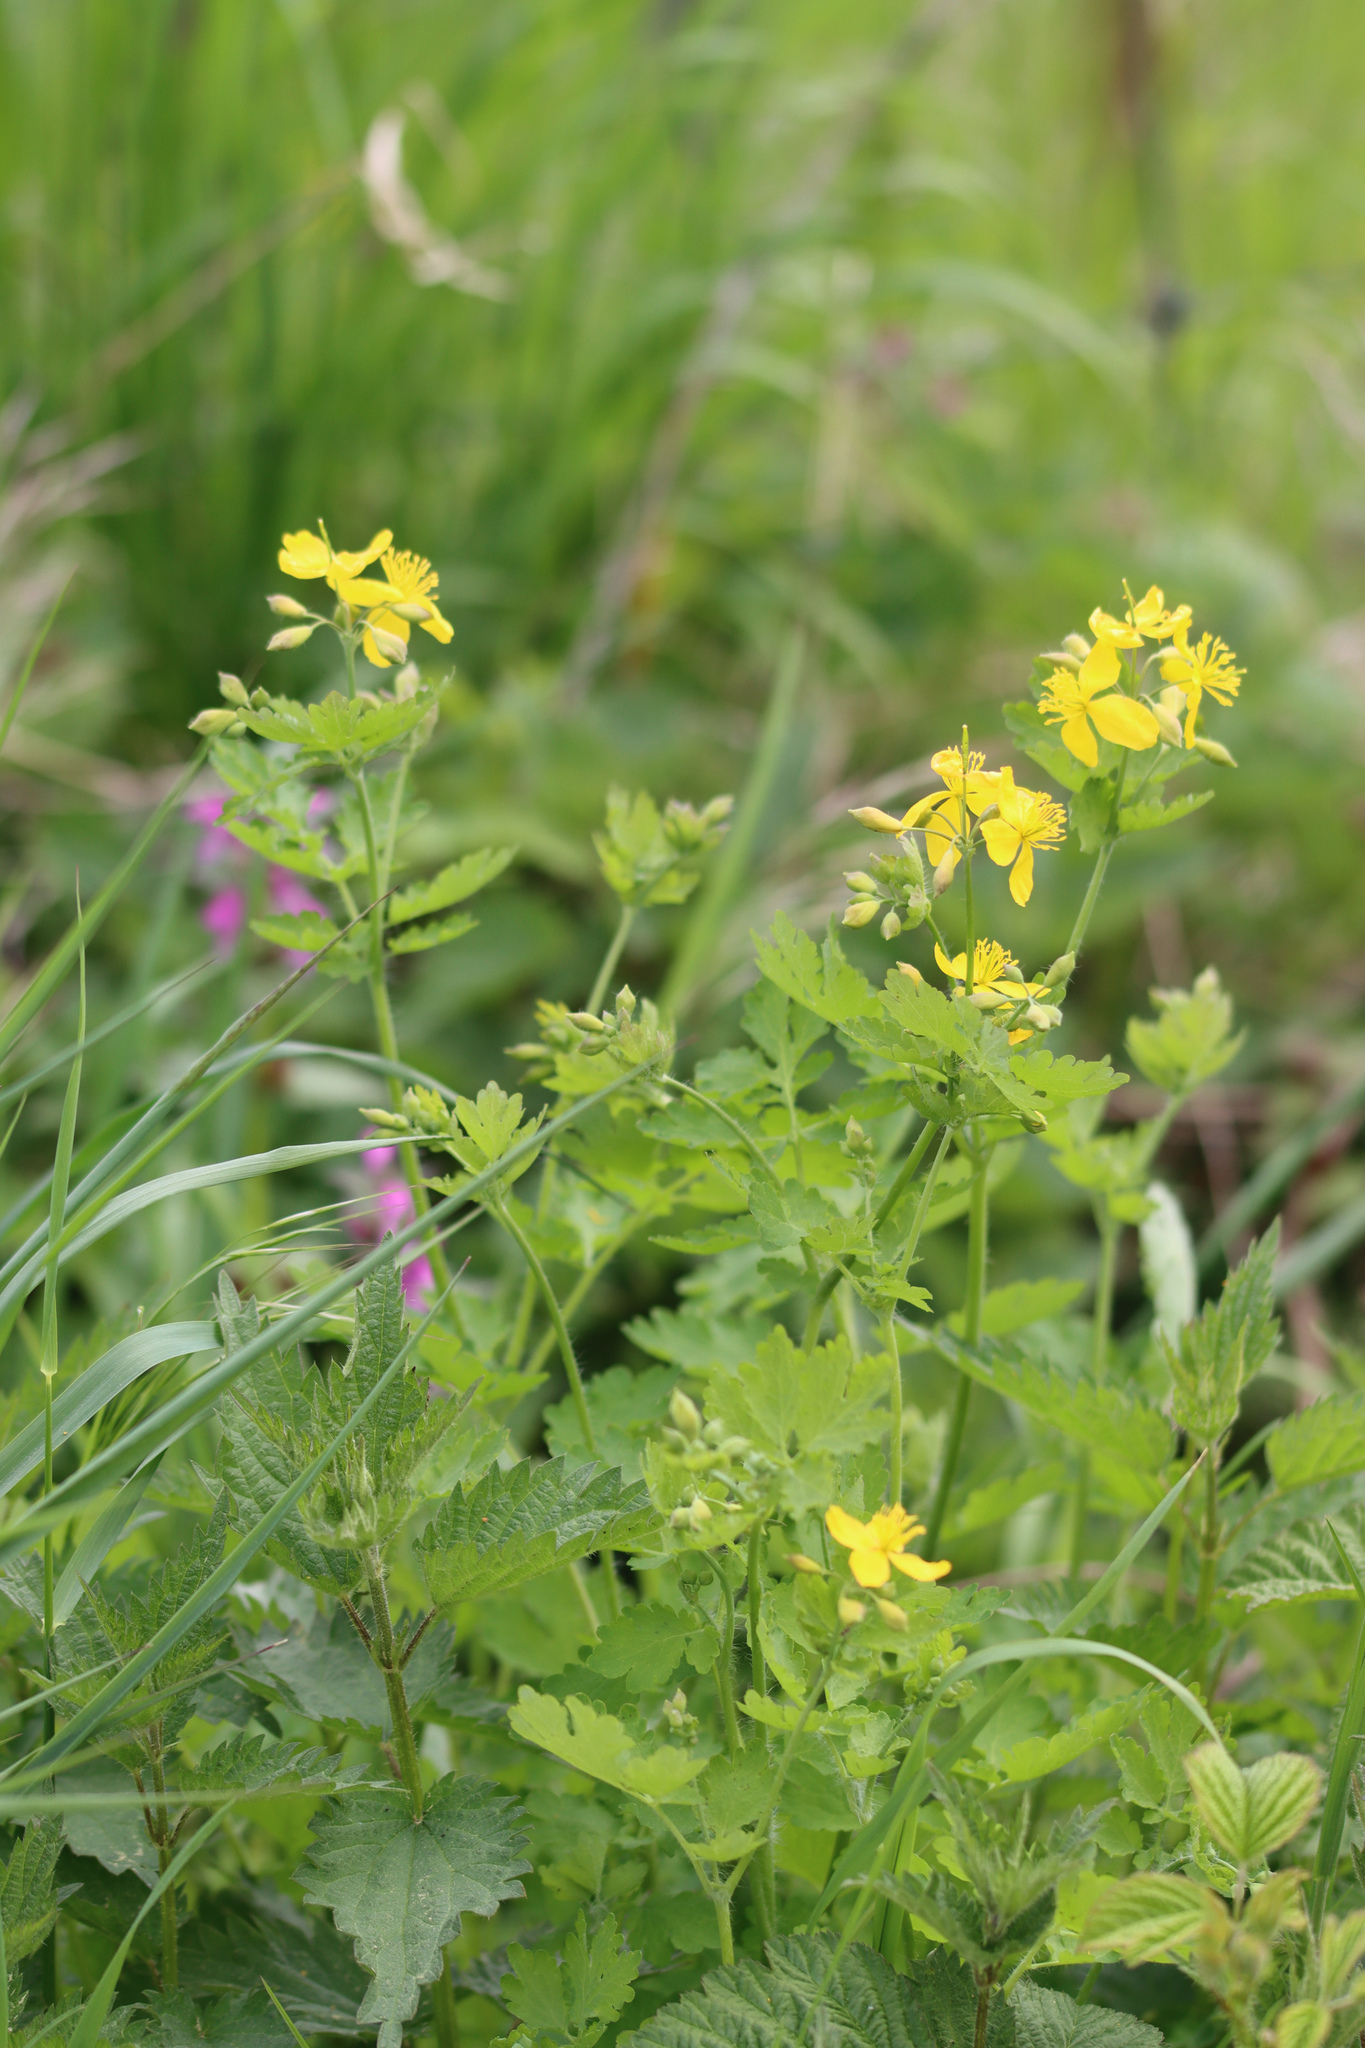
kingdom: Plantae
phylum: Tracheophyta
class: Magnoliopsida
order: Ranunculales
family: Papaveraceae
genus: Chelidonium
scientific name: Chelidonium majus
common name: Greater celandine
